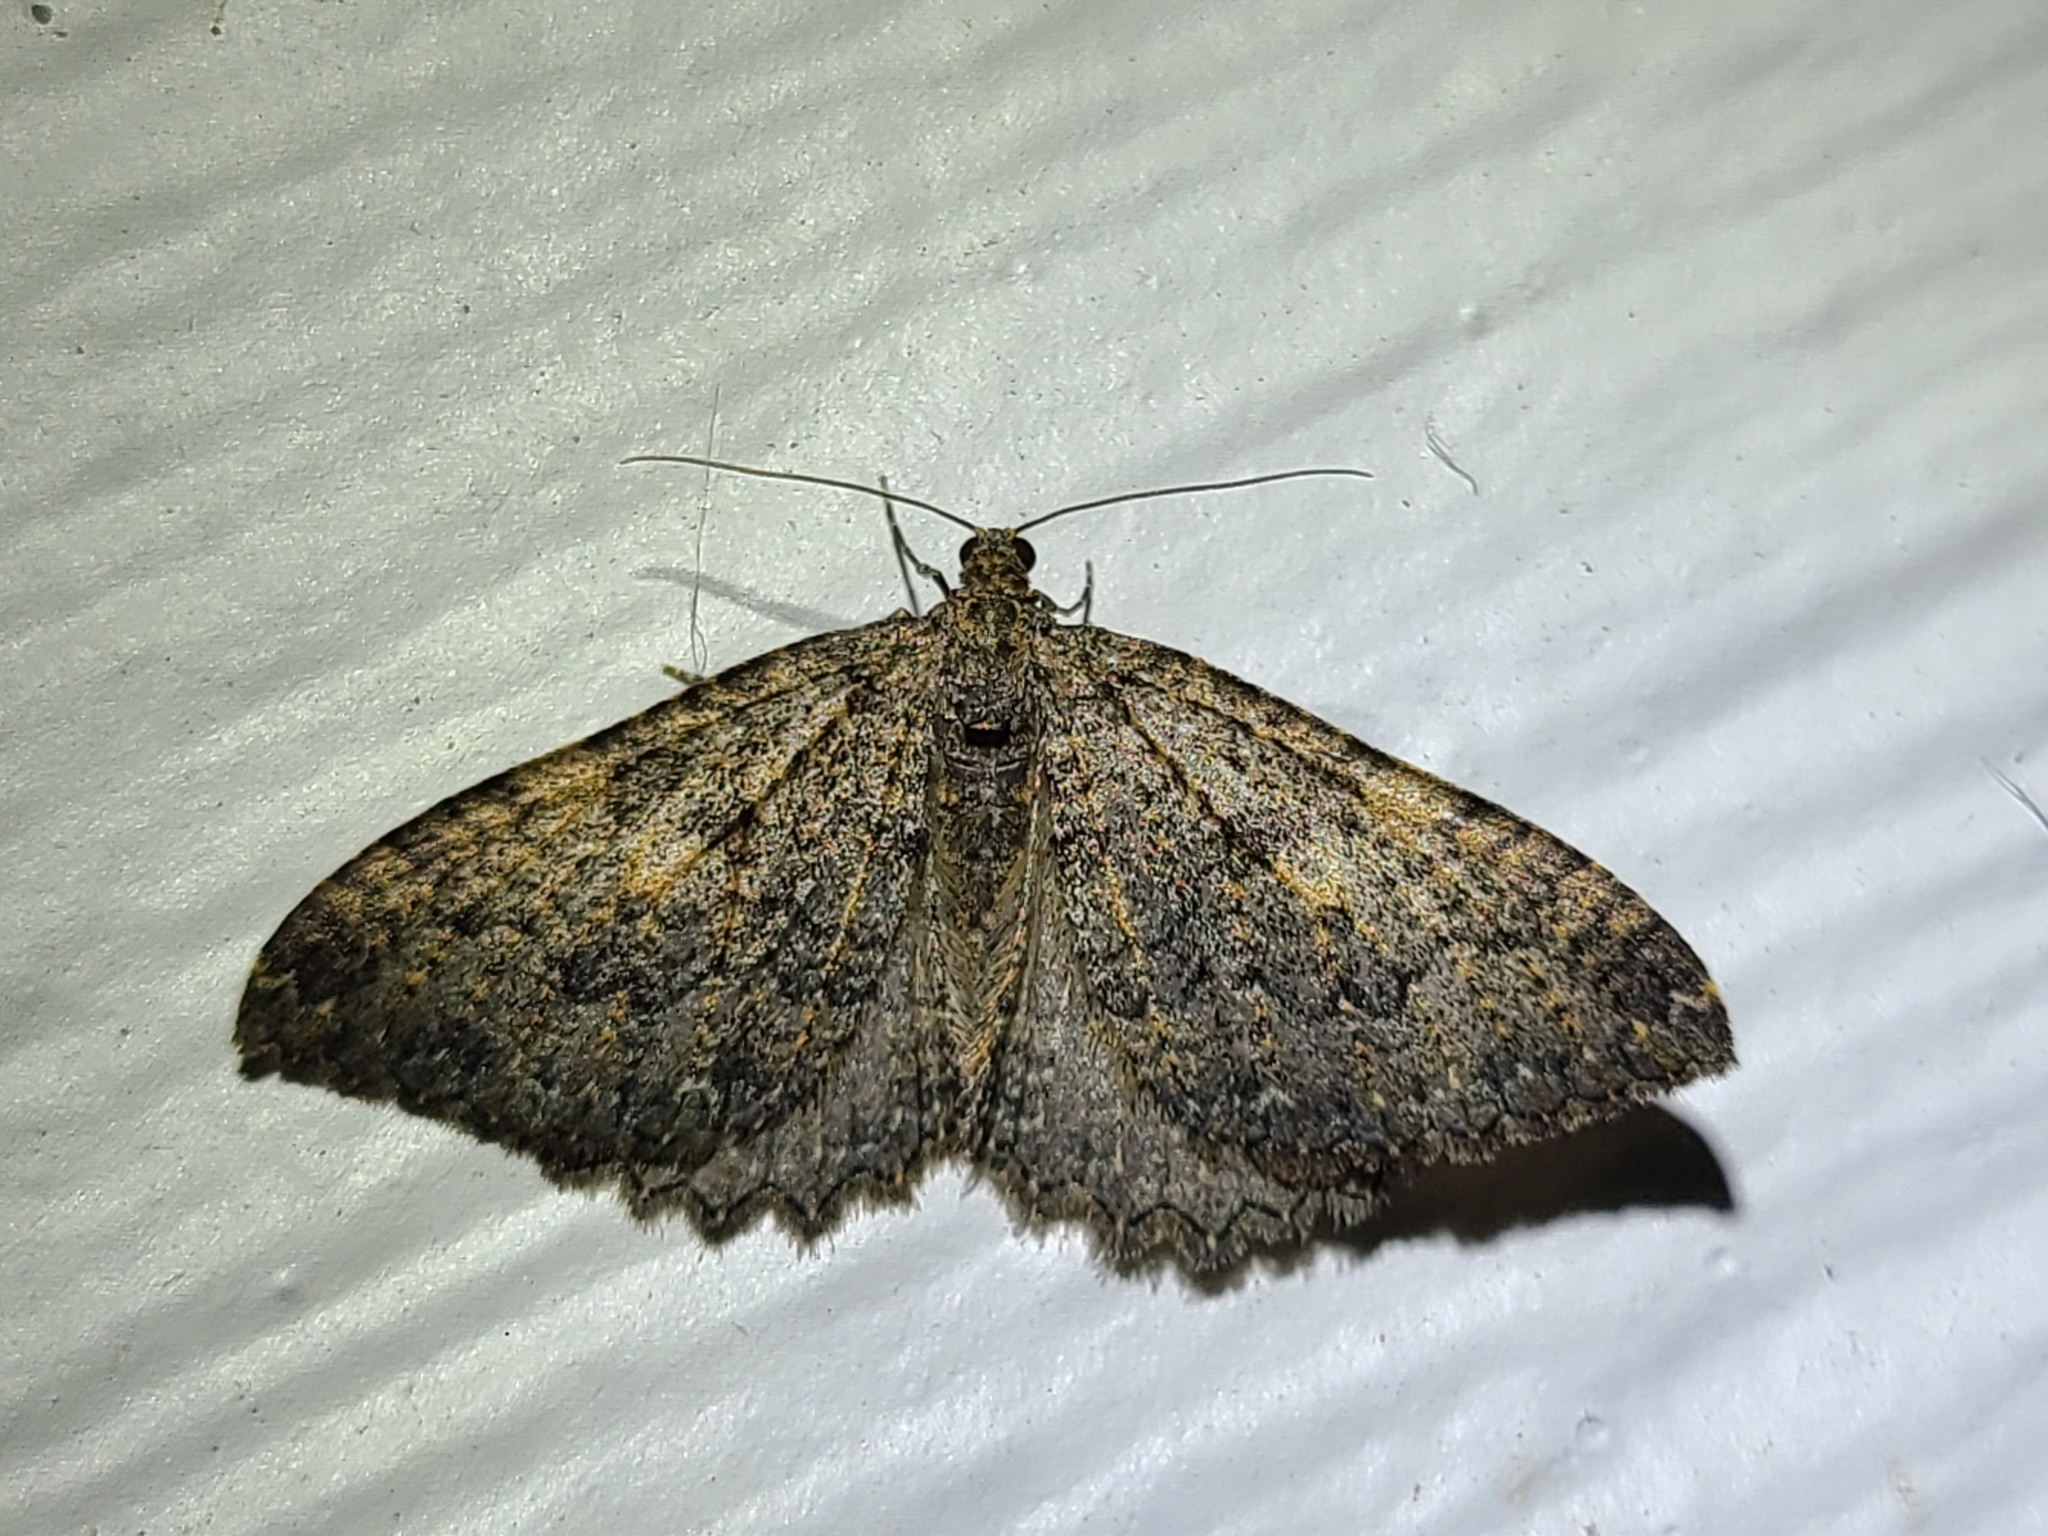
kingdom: Animalia
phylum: Arthropoda
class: Insecta
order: Lepidoptera
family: Geometridae
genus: Triphosa
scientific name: Triphosa californiata
